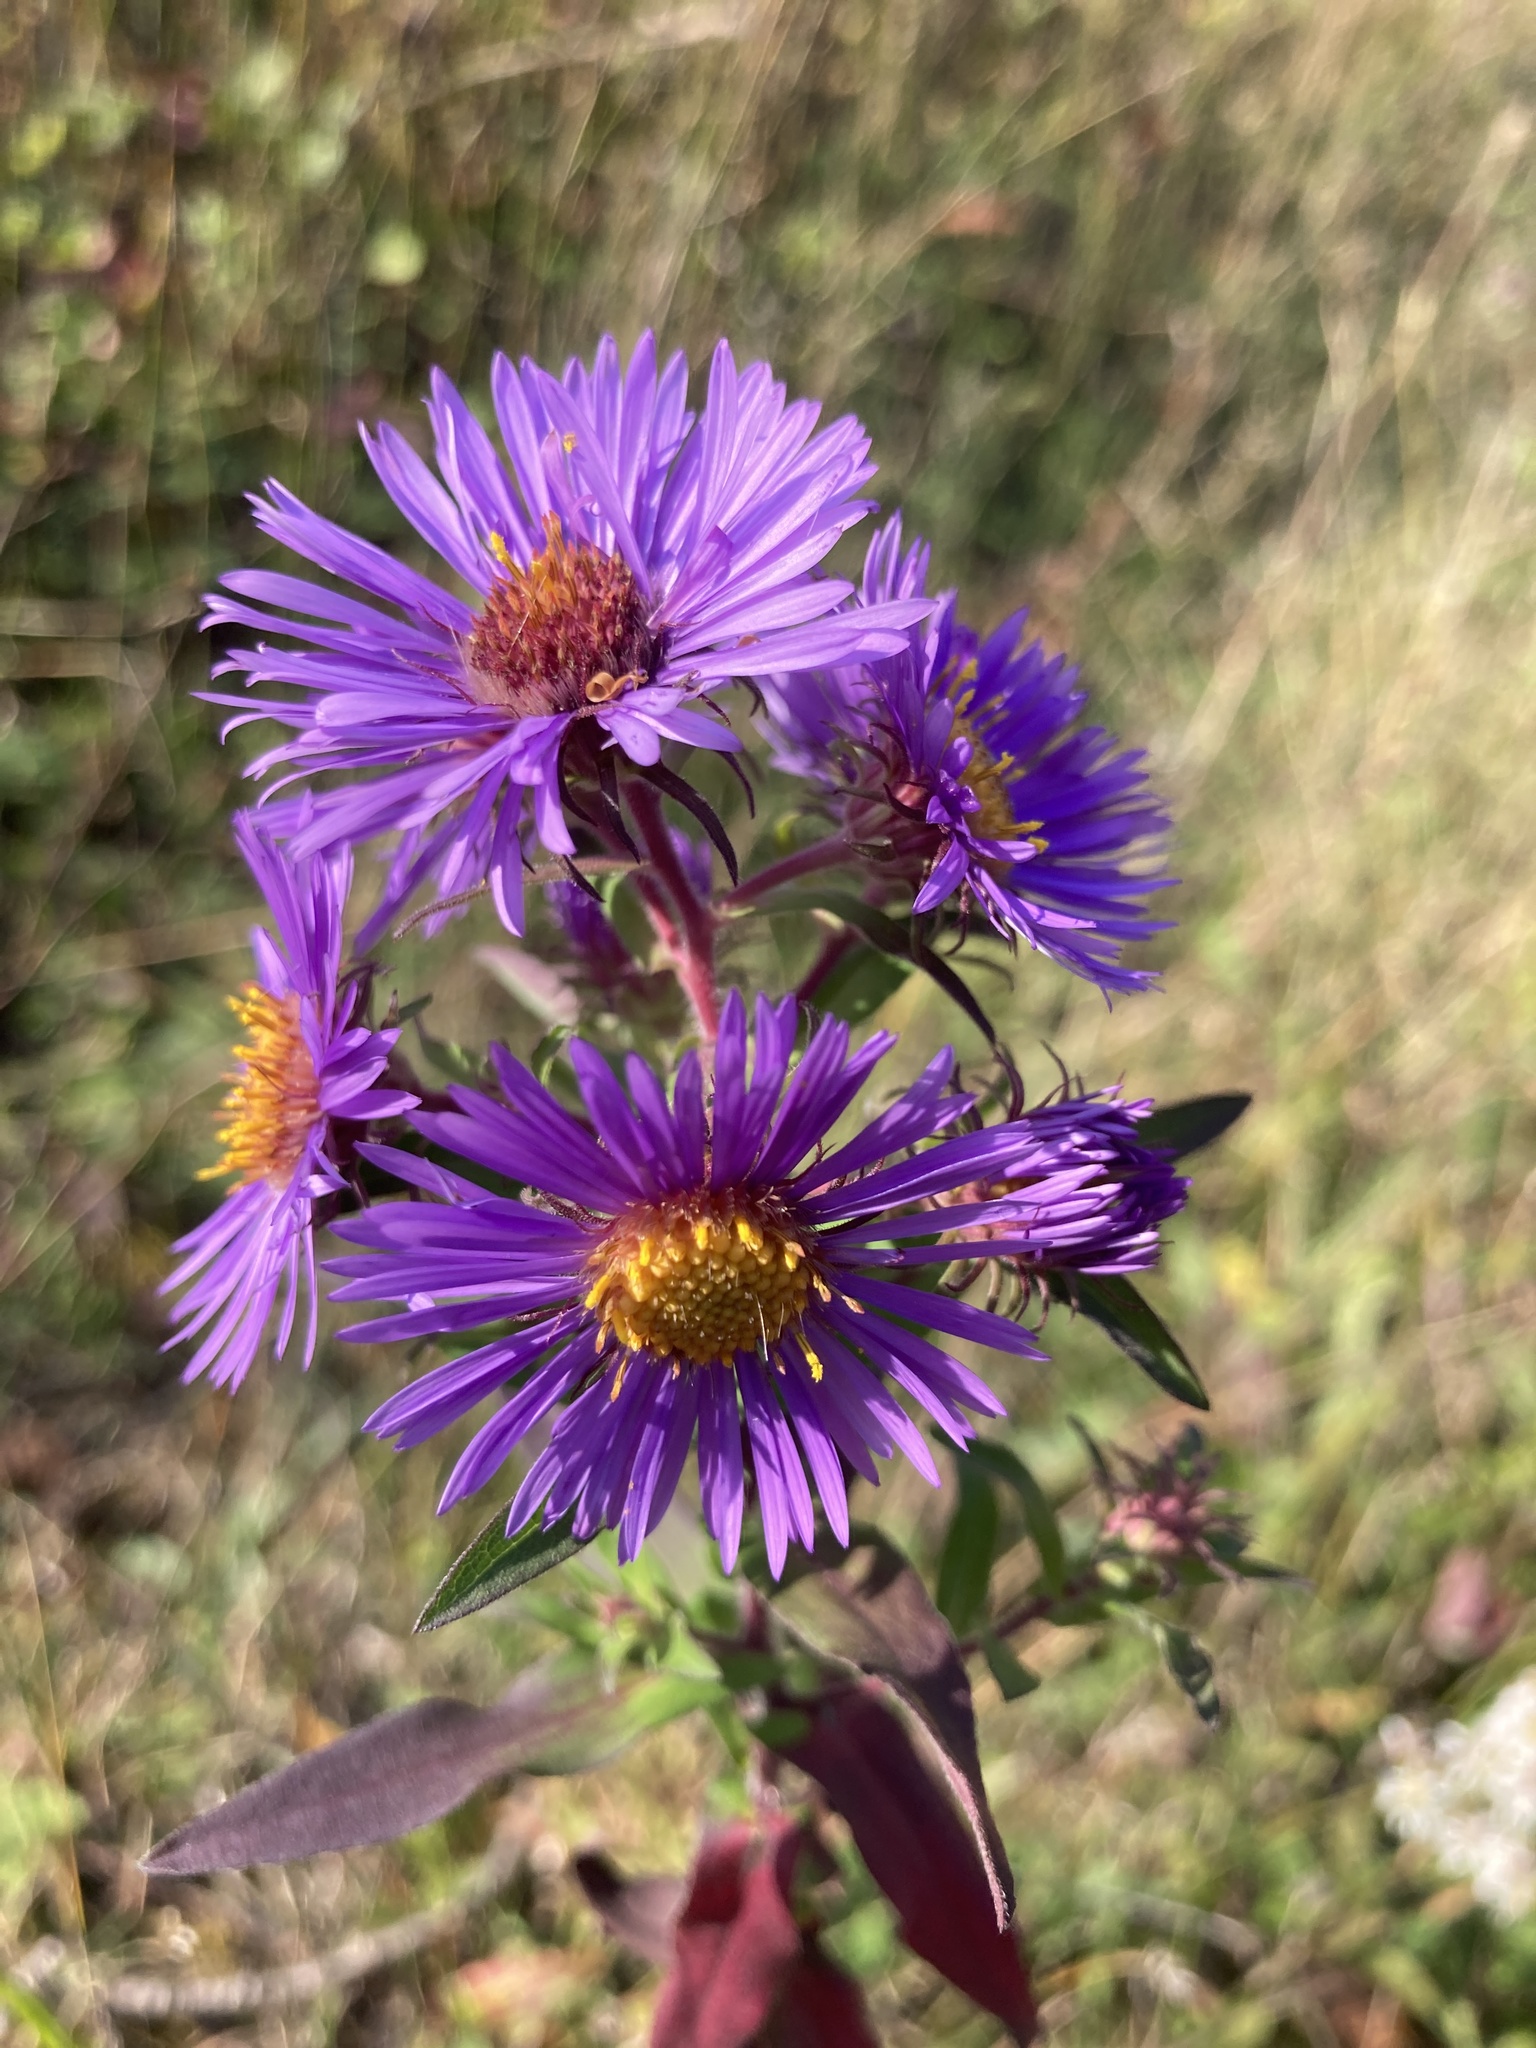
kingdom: Plantae
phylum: Tracheophyta
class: Magnoliopsida
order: Asterales
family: Asteraceae
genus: Symphyotrichum
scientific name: Symphyotrichum novae-angliae
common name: Michaelmas daisy
